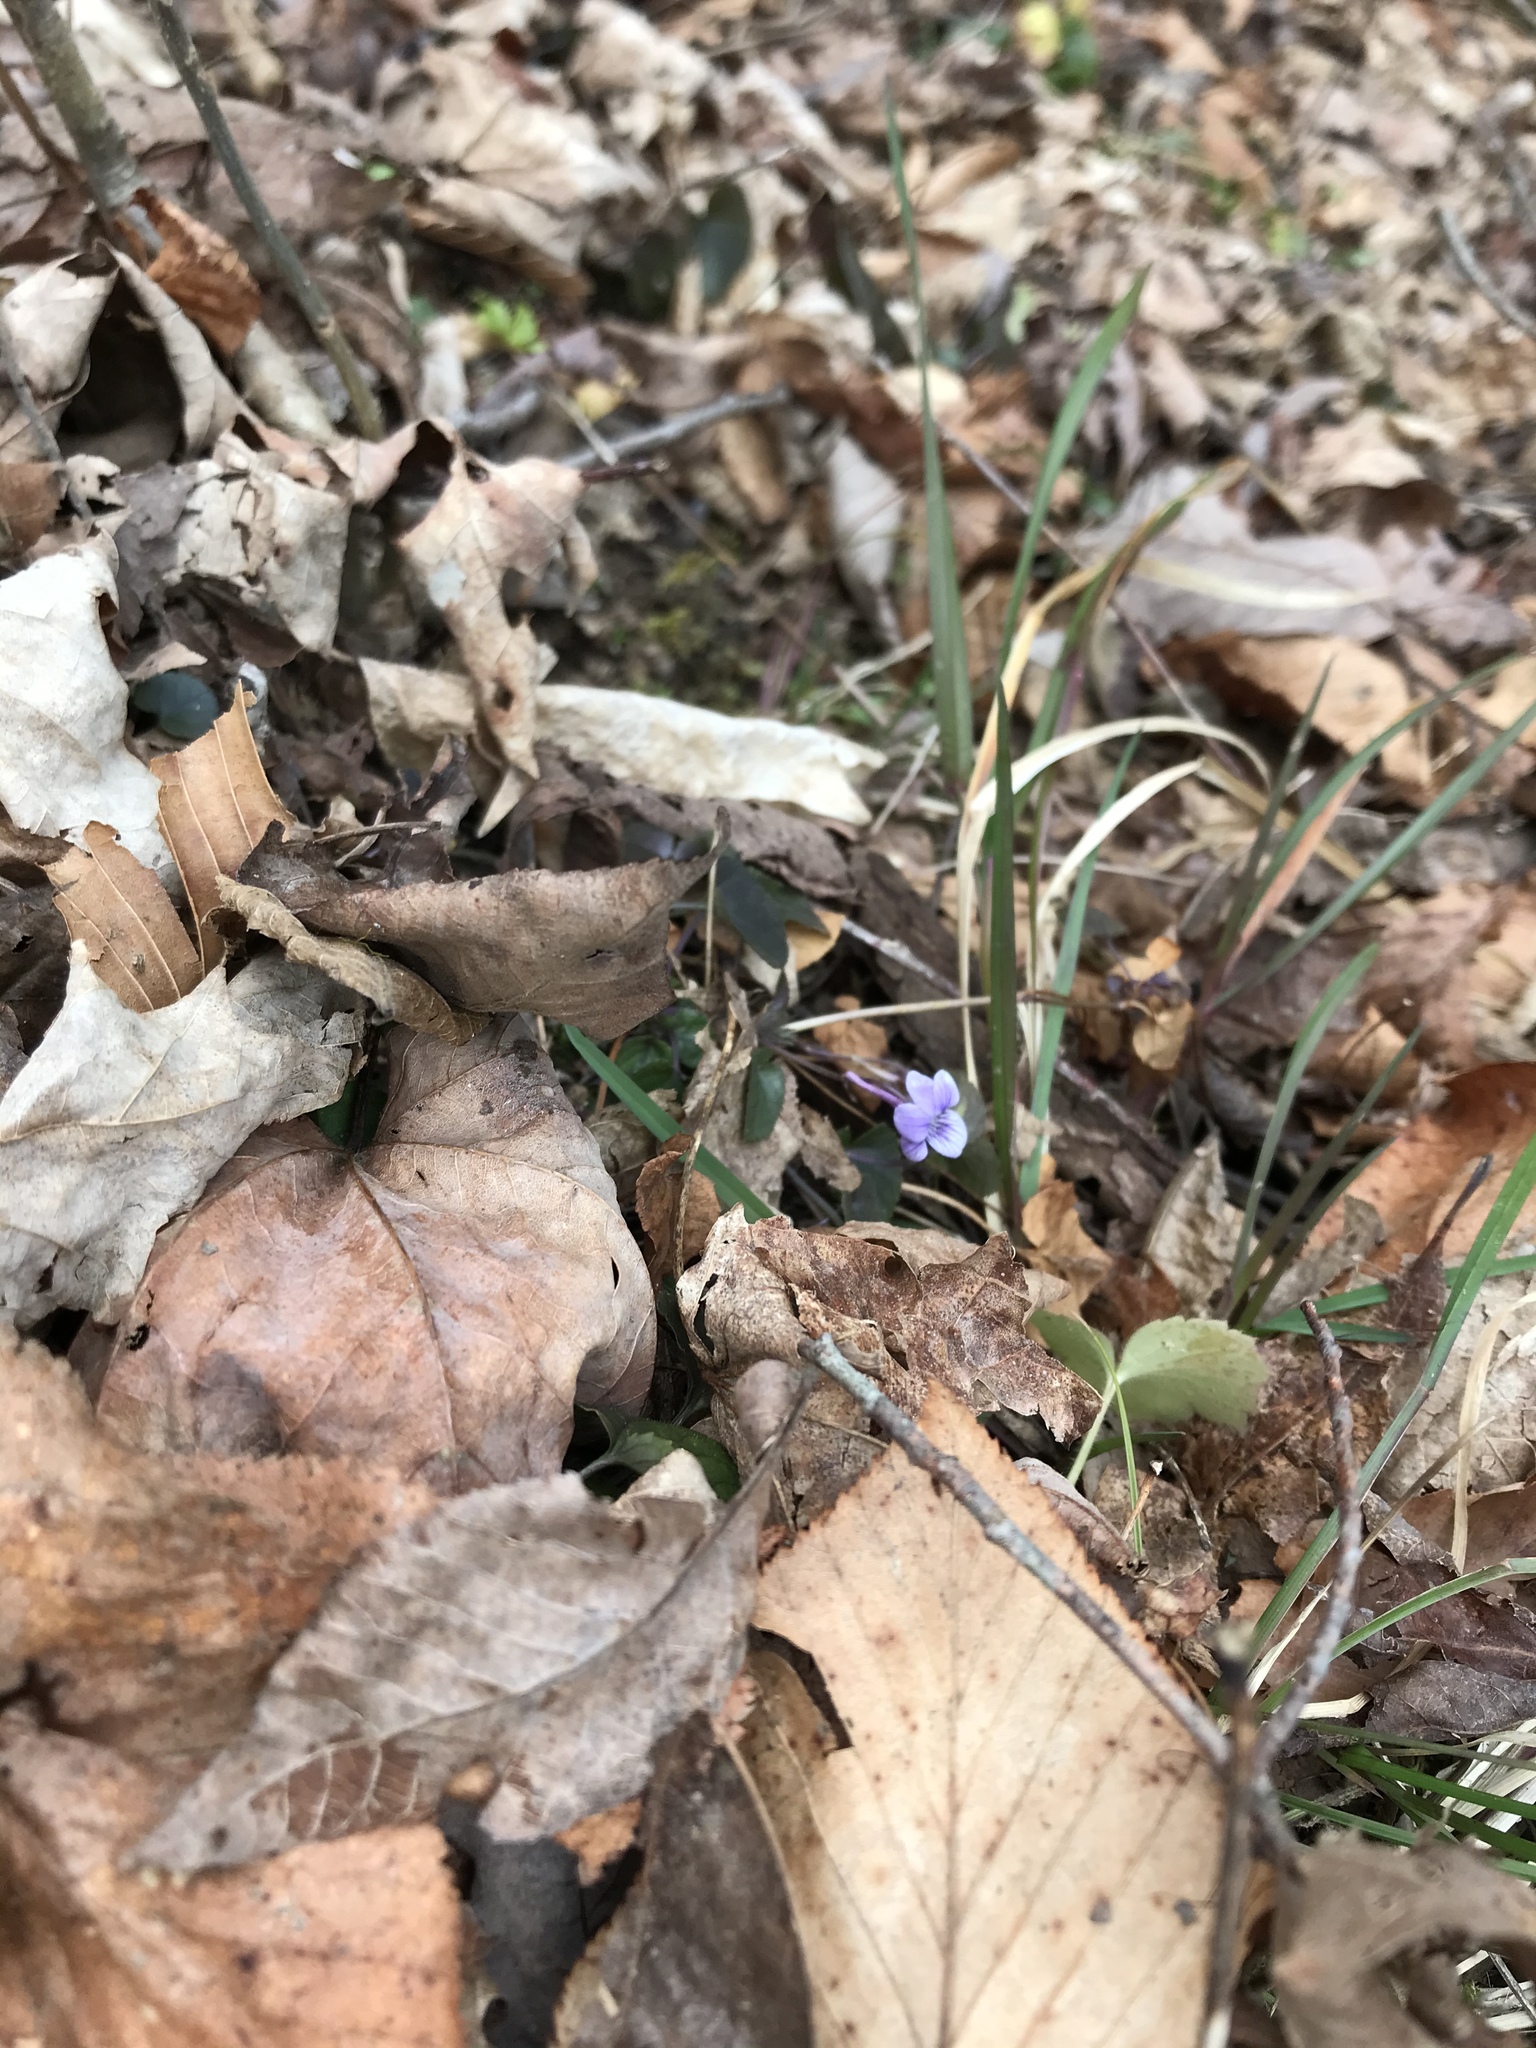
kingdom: Plantae
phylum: Tracheophyta
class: Magnoliopsida
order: Malpighiales
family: Violaceae
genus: Viola
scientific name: Viola rostrata
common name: Long-spur violet
